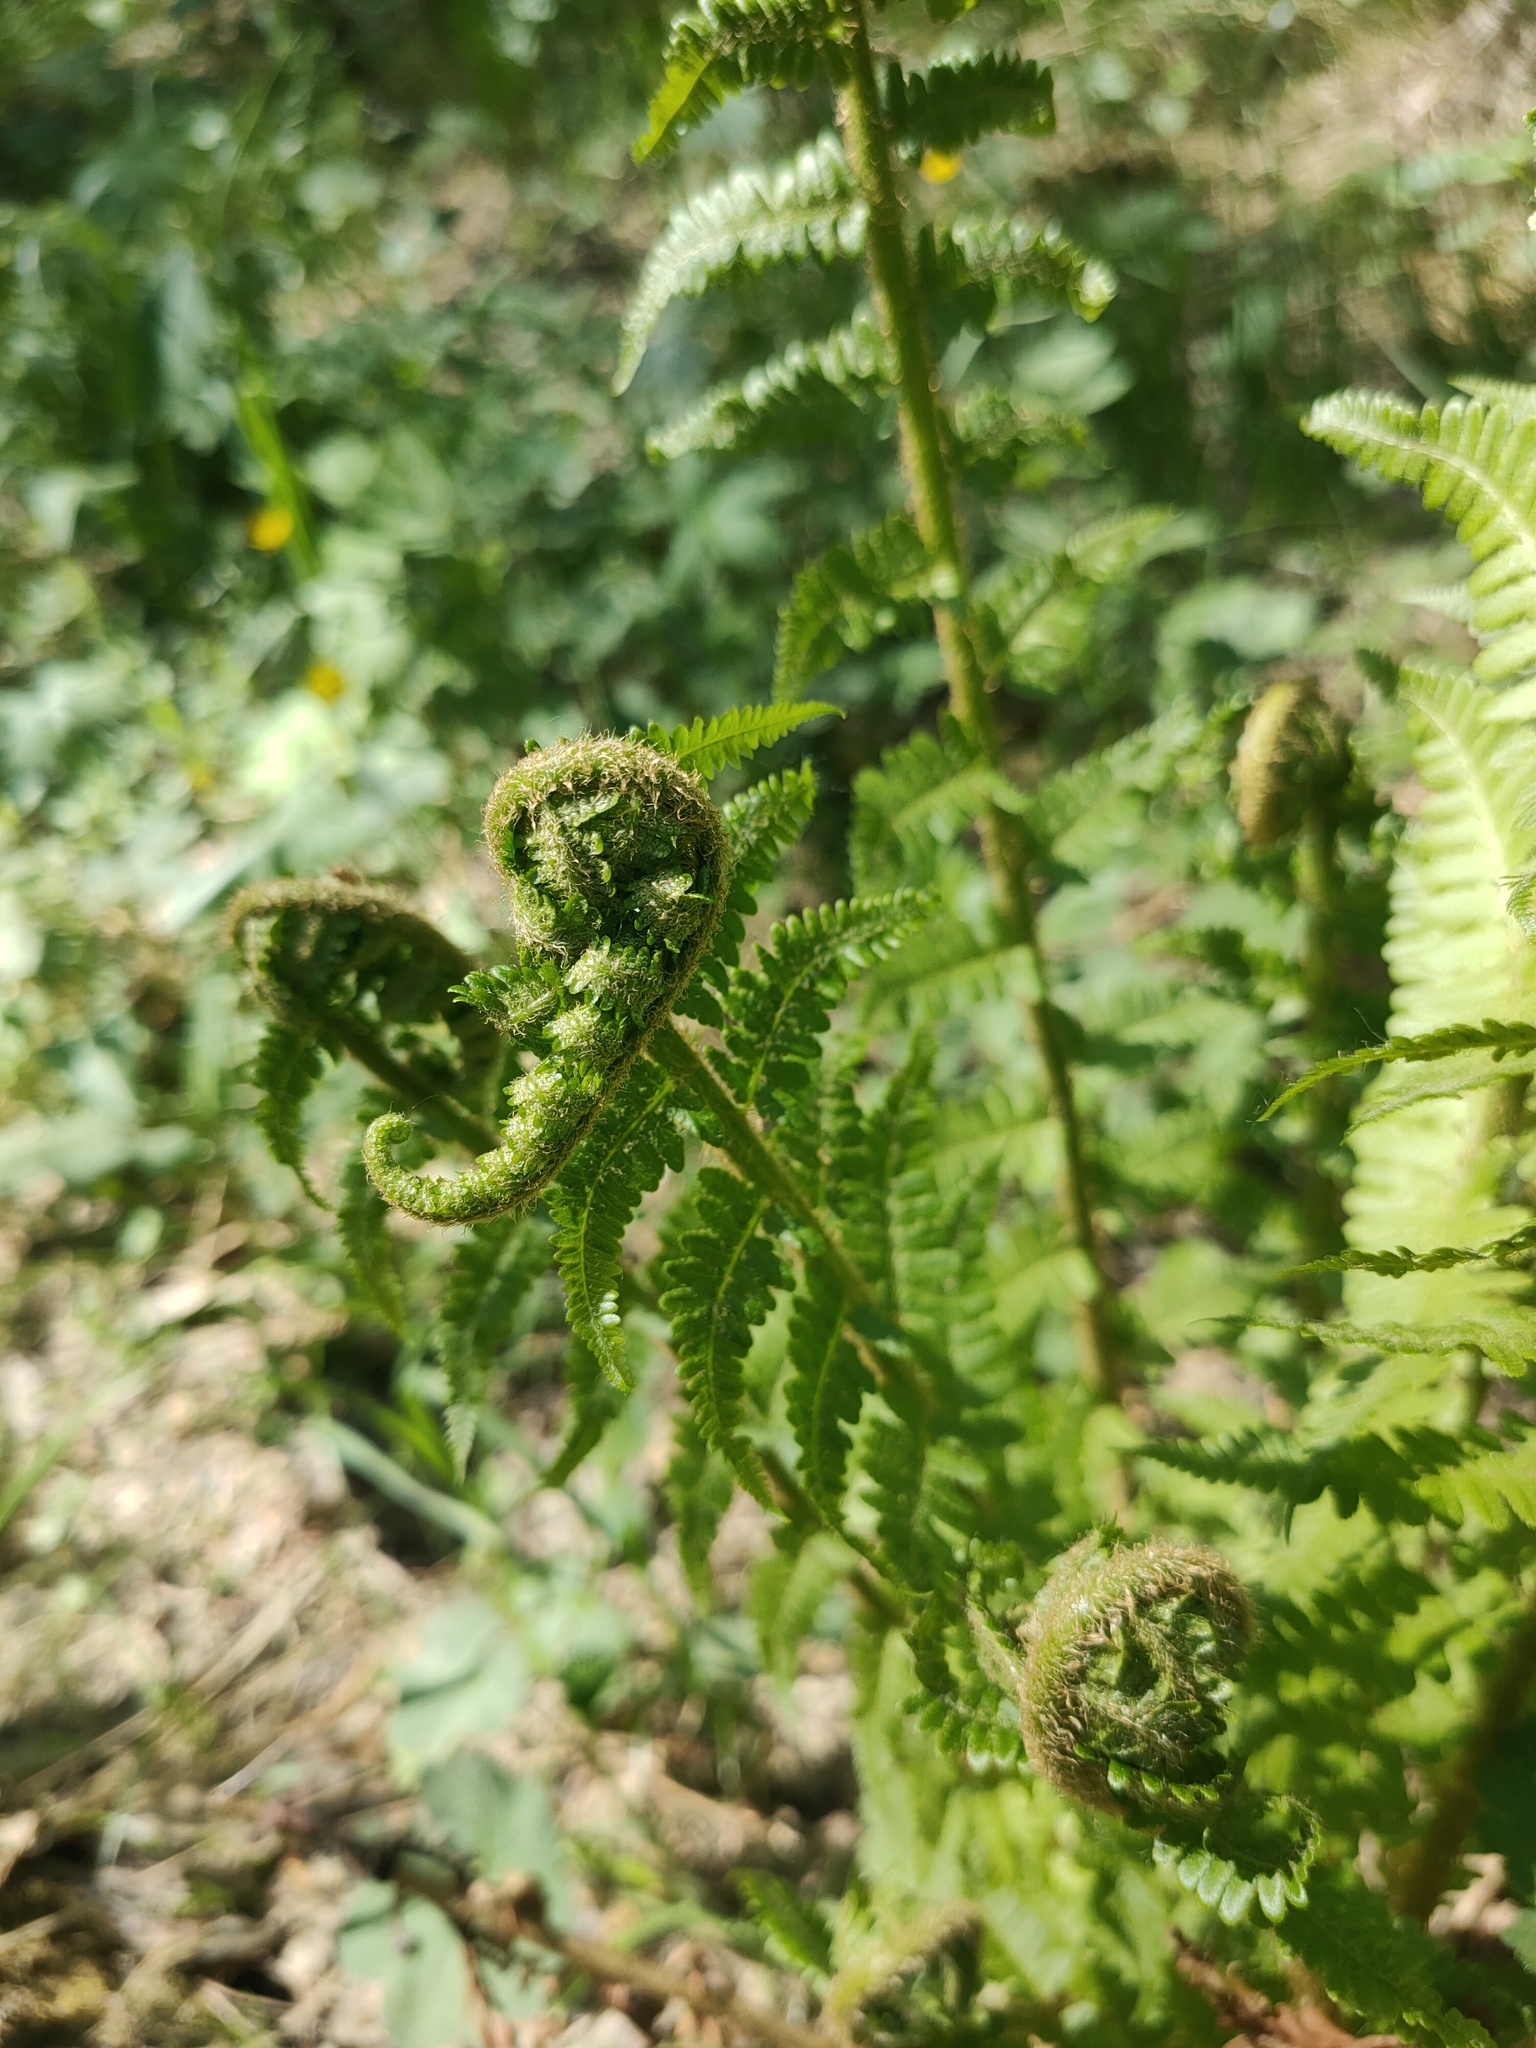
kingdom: Plantae
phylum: Tracheophyta
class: Polypodiopsida
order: Polypodiales
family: Dryopteridaceae
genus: Dryopteris
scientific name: Dryopteris filix-mas
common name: Male fern
